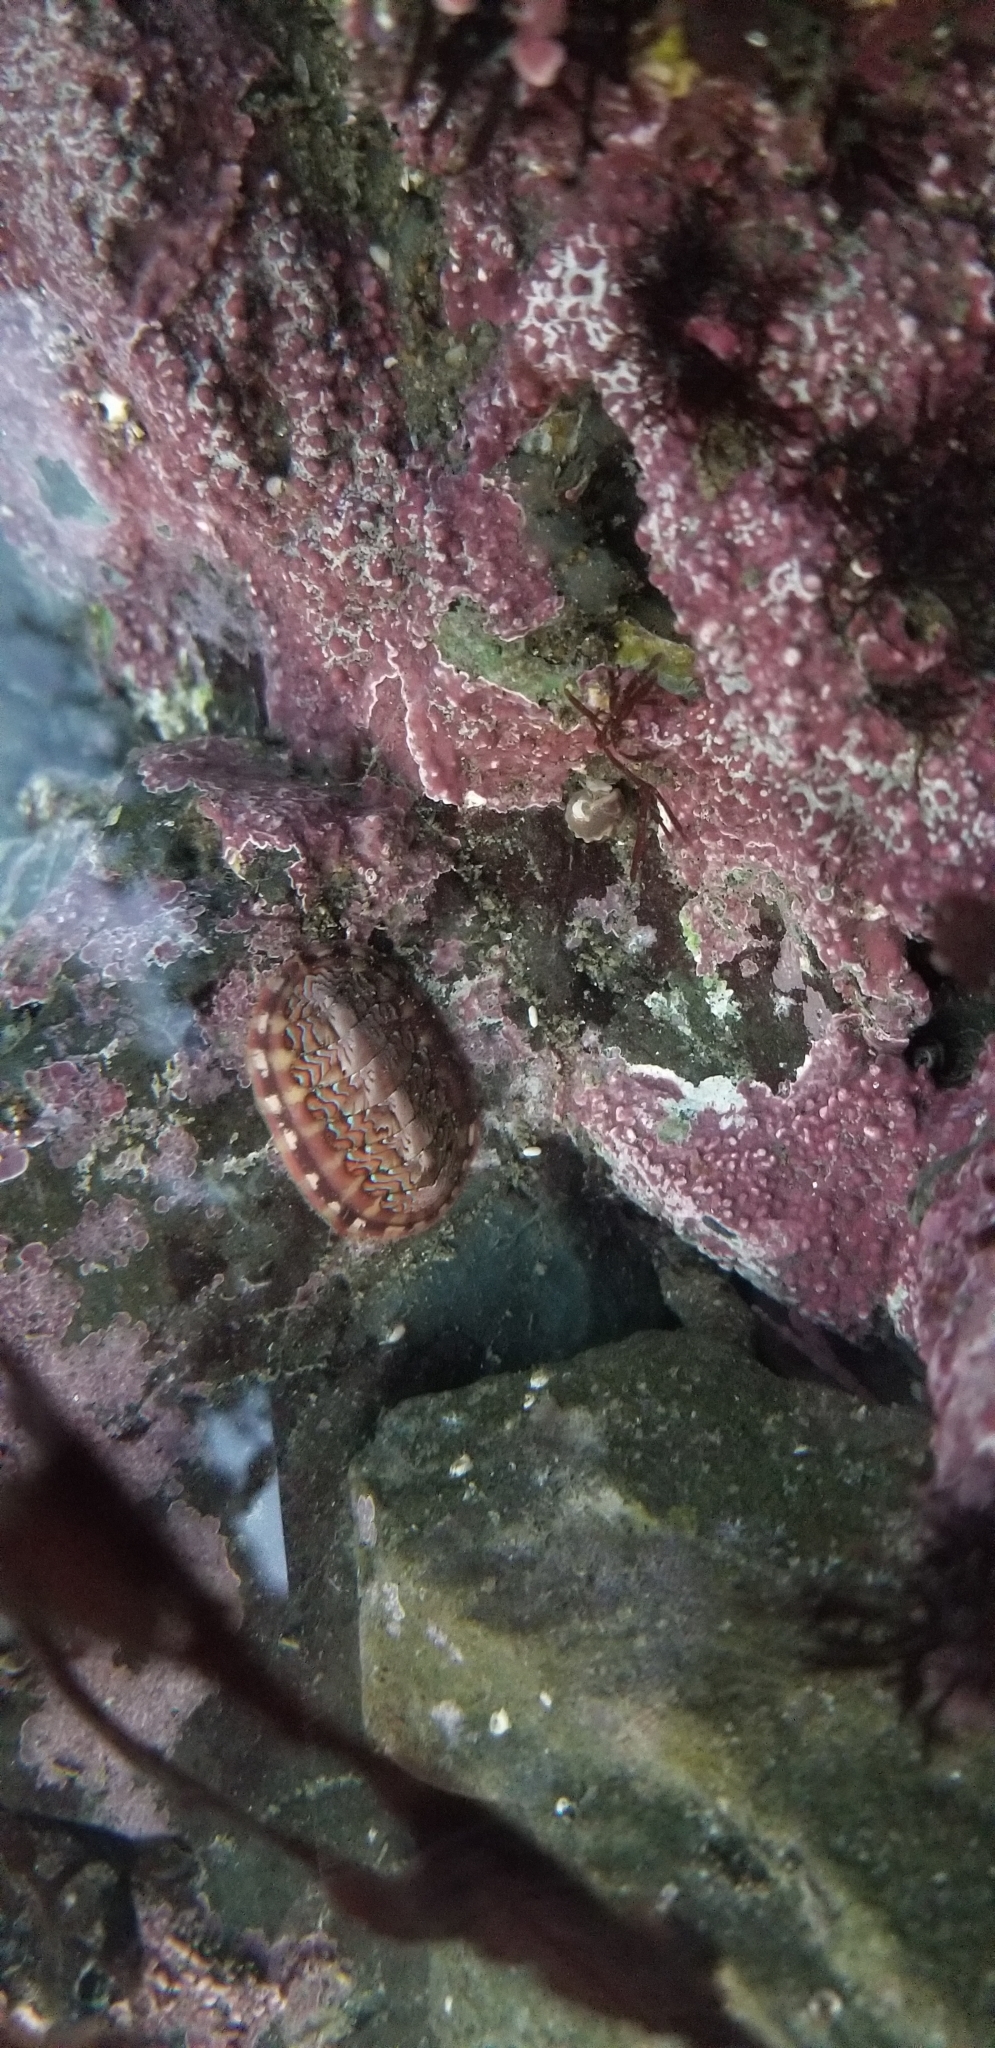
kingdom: Animalia
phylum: Mollusca
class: Polyplacophora
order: Chitonida
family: Tonicellidae
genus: Tonicella
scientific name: Tonicella lokii
